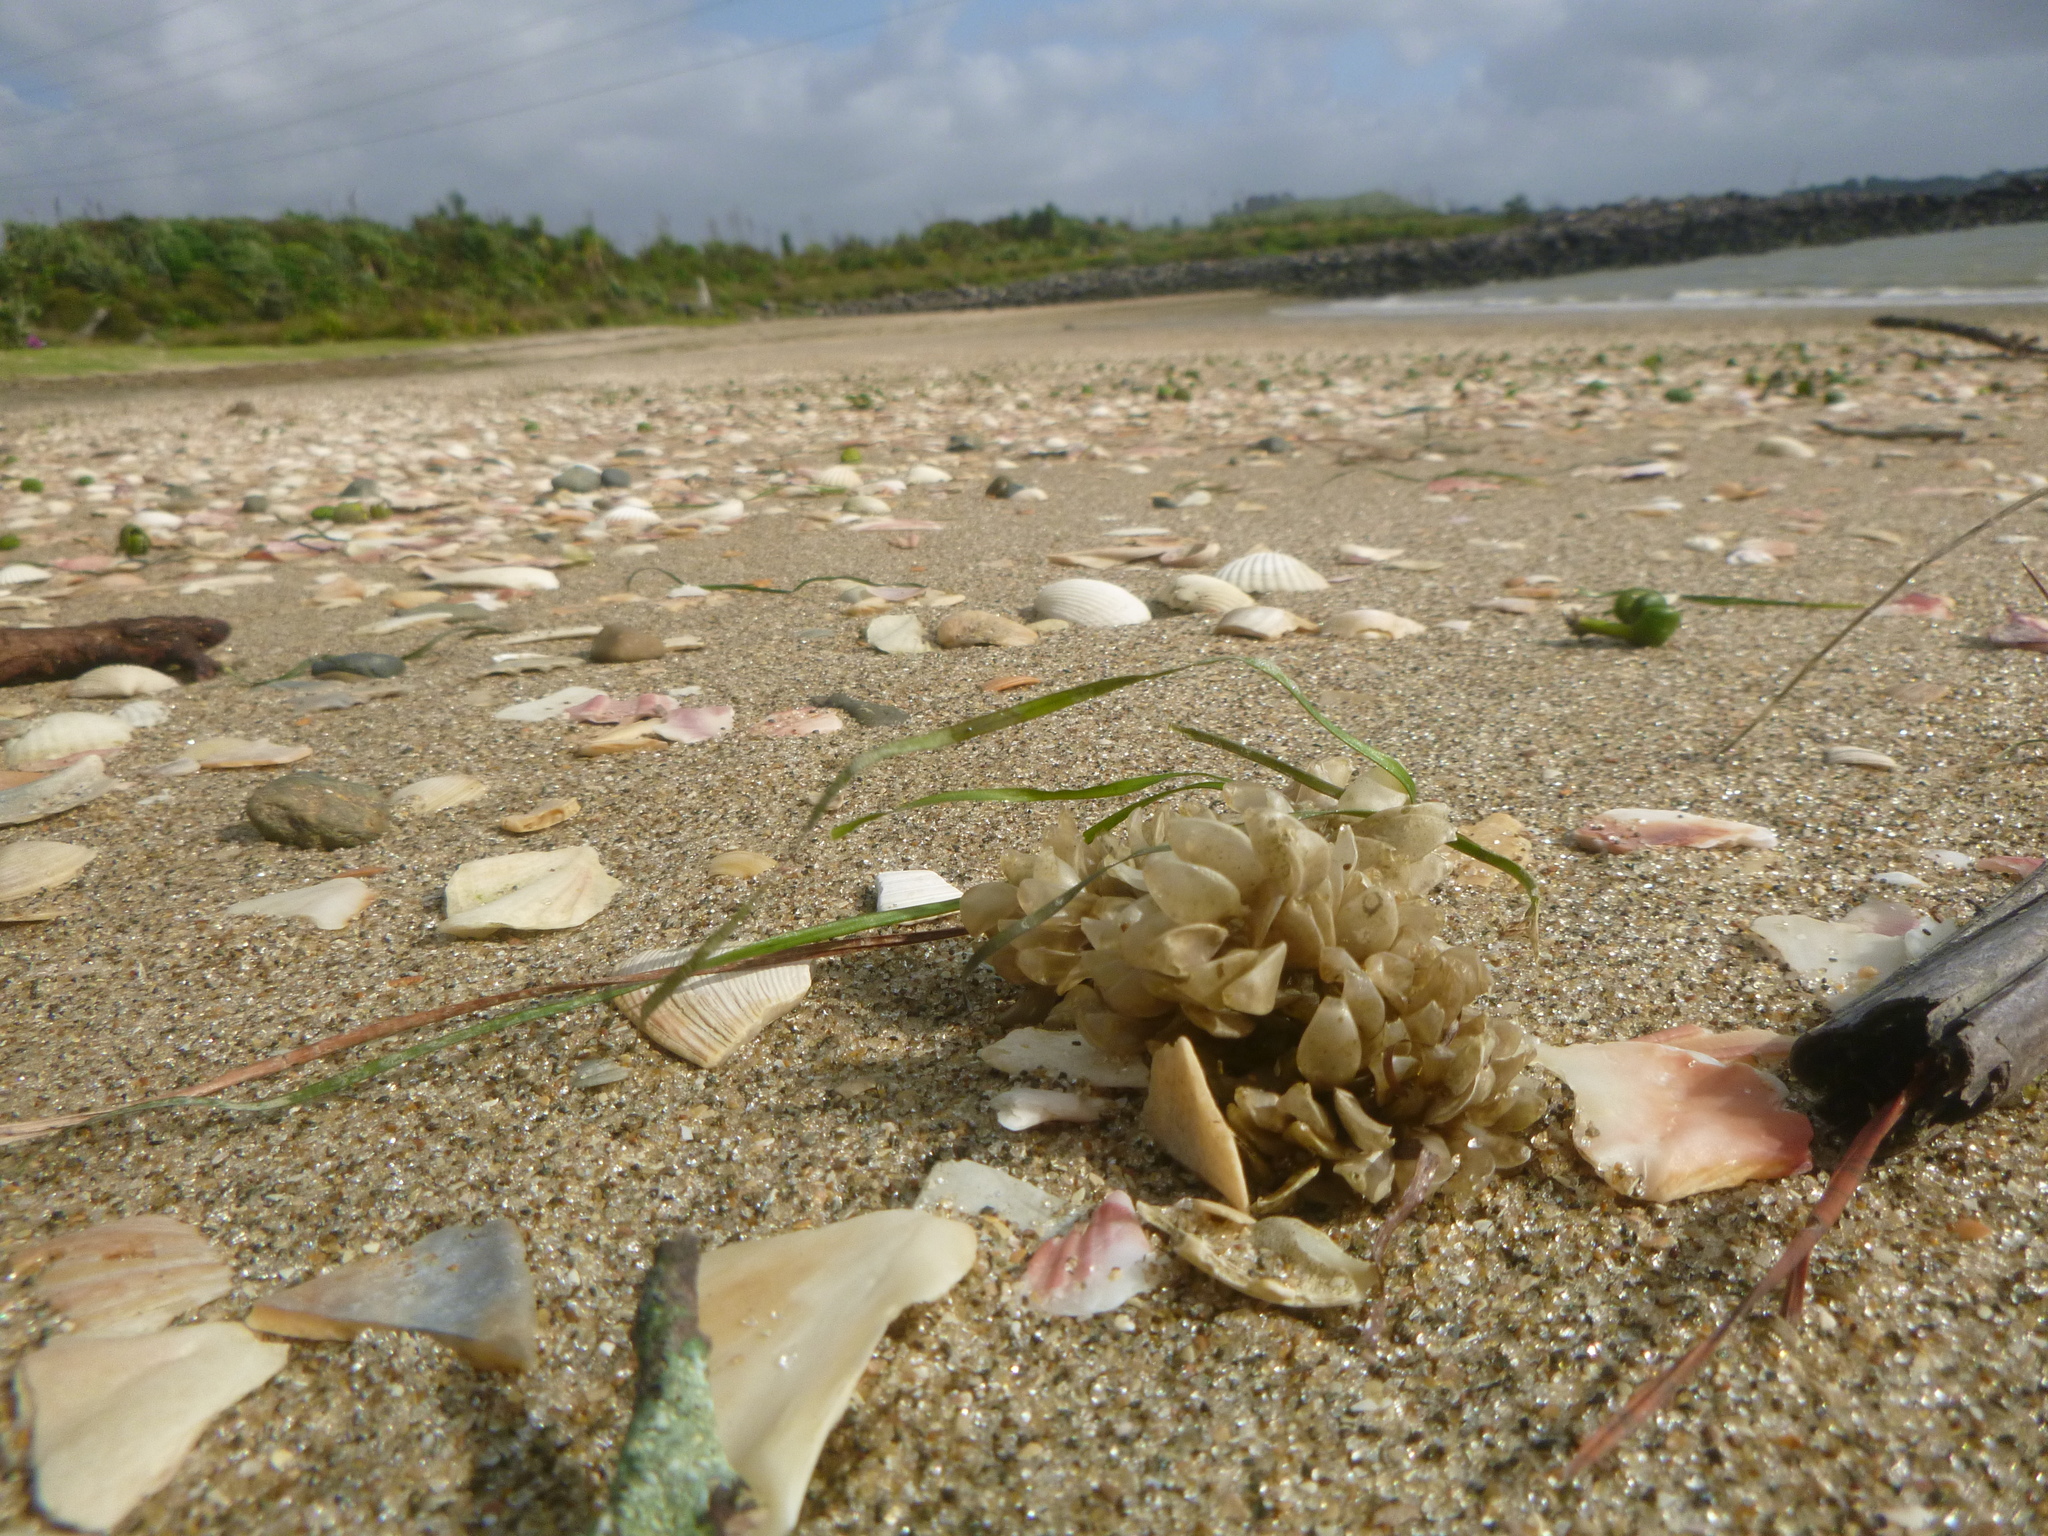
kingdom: Animalia
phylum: Mollusca
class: Gastropoda
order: Neogastropoda
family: Cominellidae
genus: Cominella
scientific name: Cominella adspersa
